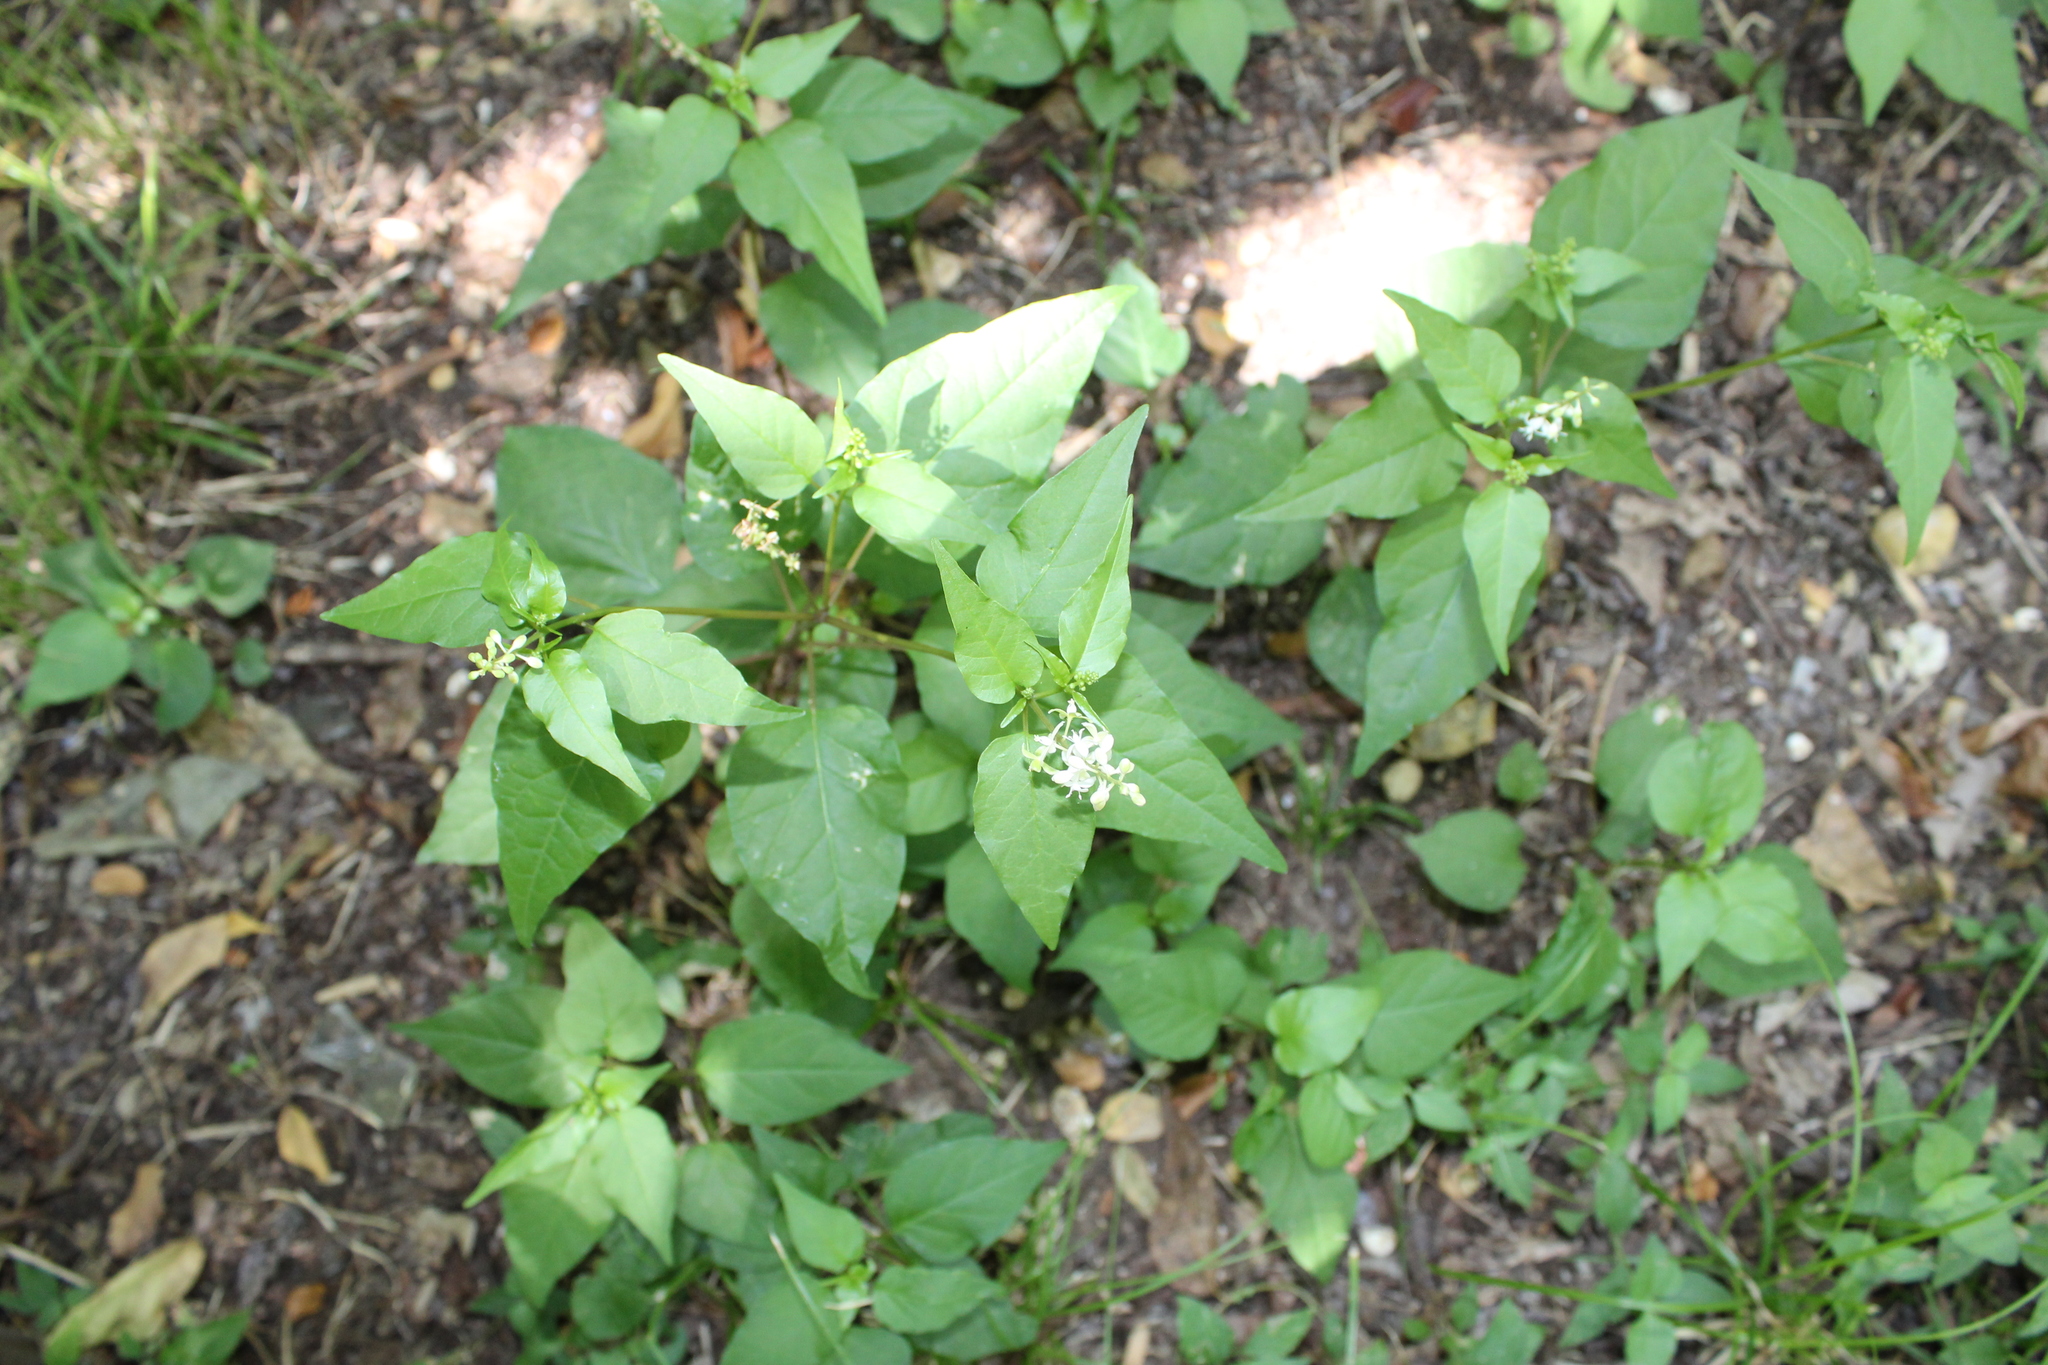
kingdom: Plantae
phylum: Tracheophyta
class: Magnoliopsida
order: Caryophyllales
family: Phytolaccaceae
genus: Rivina
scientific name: Rivina humilis
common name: Rougeplant
